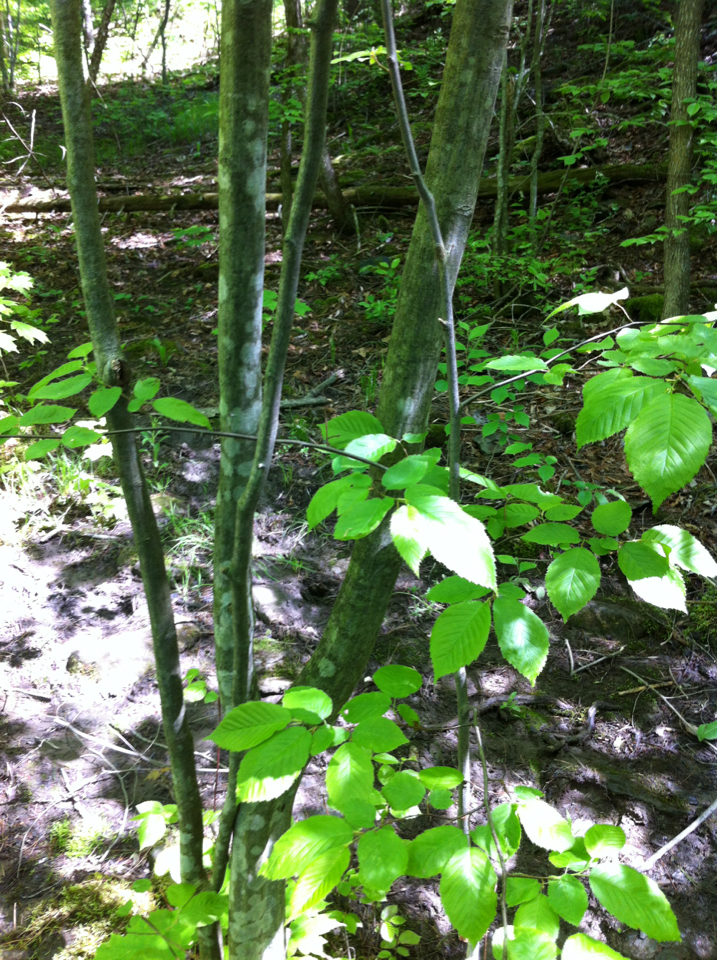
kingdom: Plantae
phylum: Tracheophyta
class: Magnoliopsida
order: Fagales
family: Betulaceae
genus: Carpinus
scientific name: Carpinus caroliniana
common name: American hornbeam
